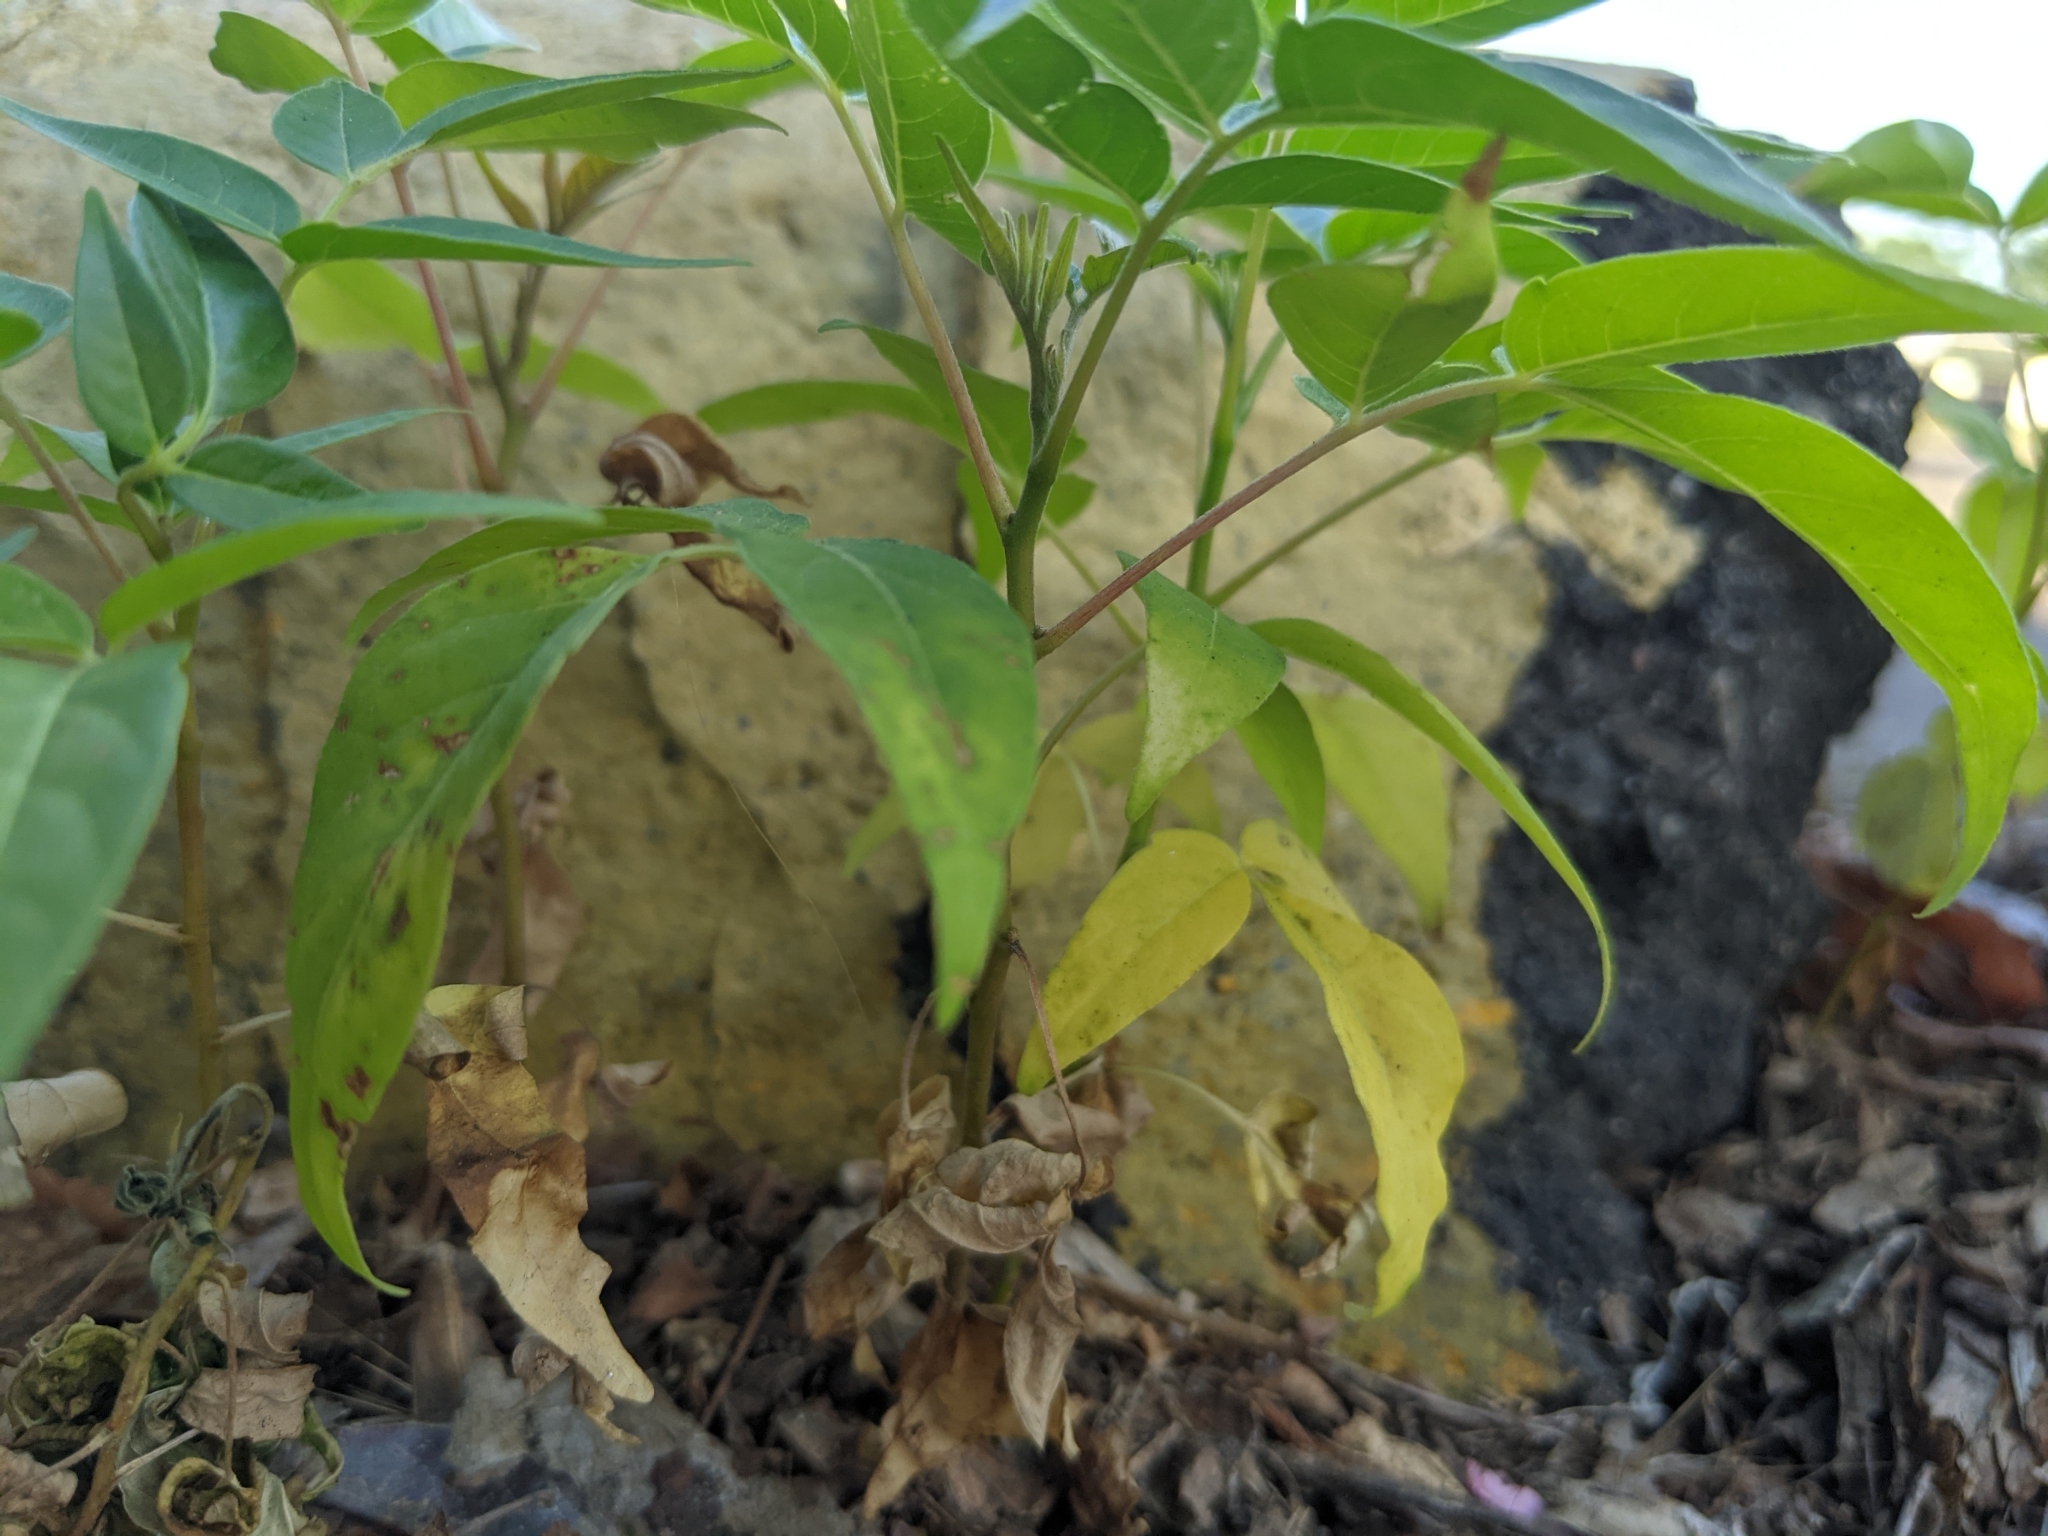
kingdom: Plantae
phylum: Tracheophyta
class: Magnoliopsida
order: Sapindales
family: Simaroubaceae
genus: Ailanthus
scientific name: Ailanthus altissima
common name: Tree-of-heaven
